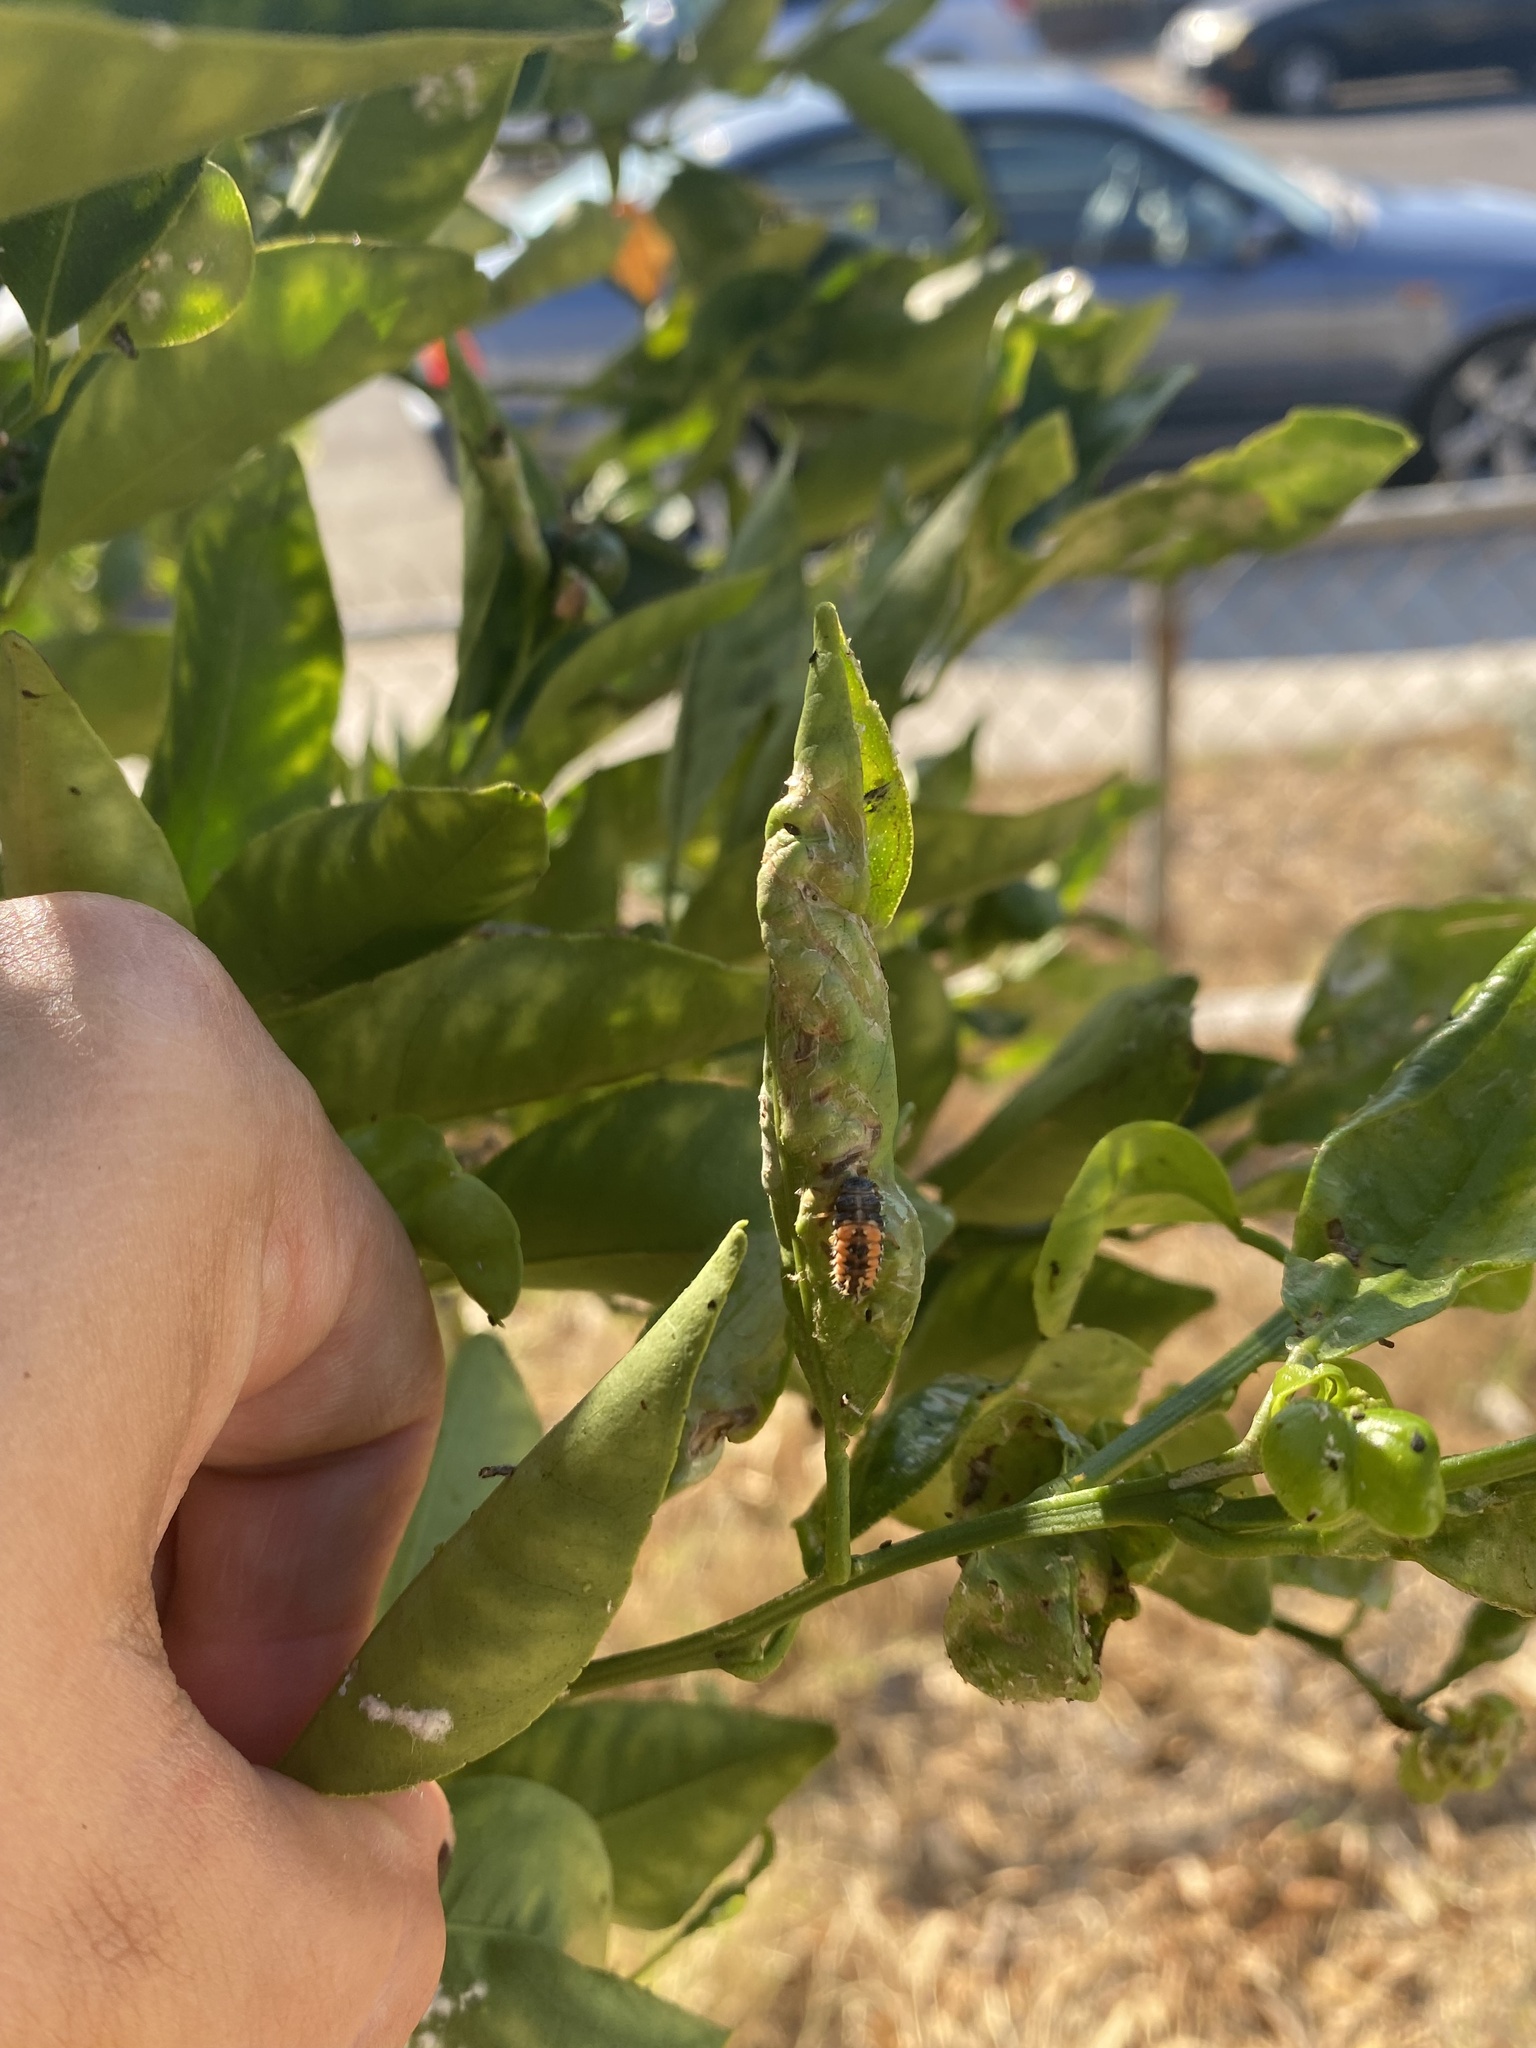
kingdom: Animalia
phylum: Arthropoda
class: Insecta
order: Coleoptera
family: Coccinellidae
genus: Harmonia
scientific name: Harmonia axyridis
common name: Harlequin ladybird
